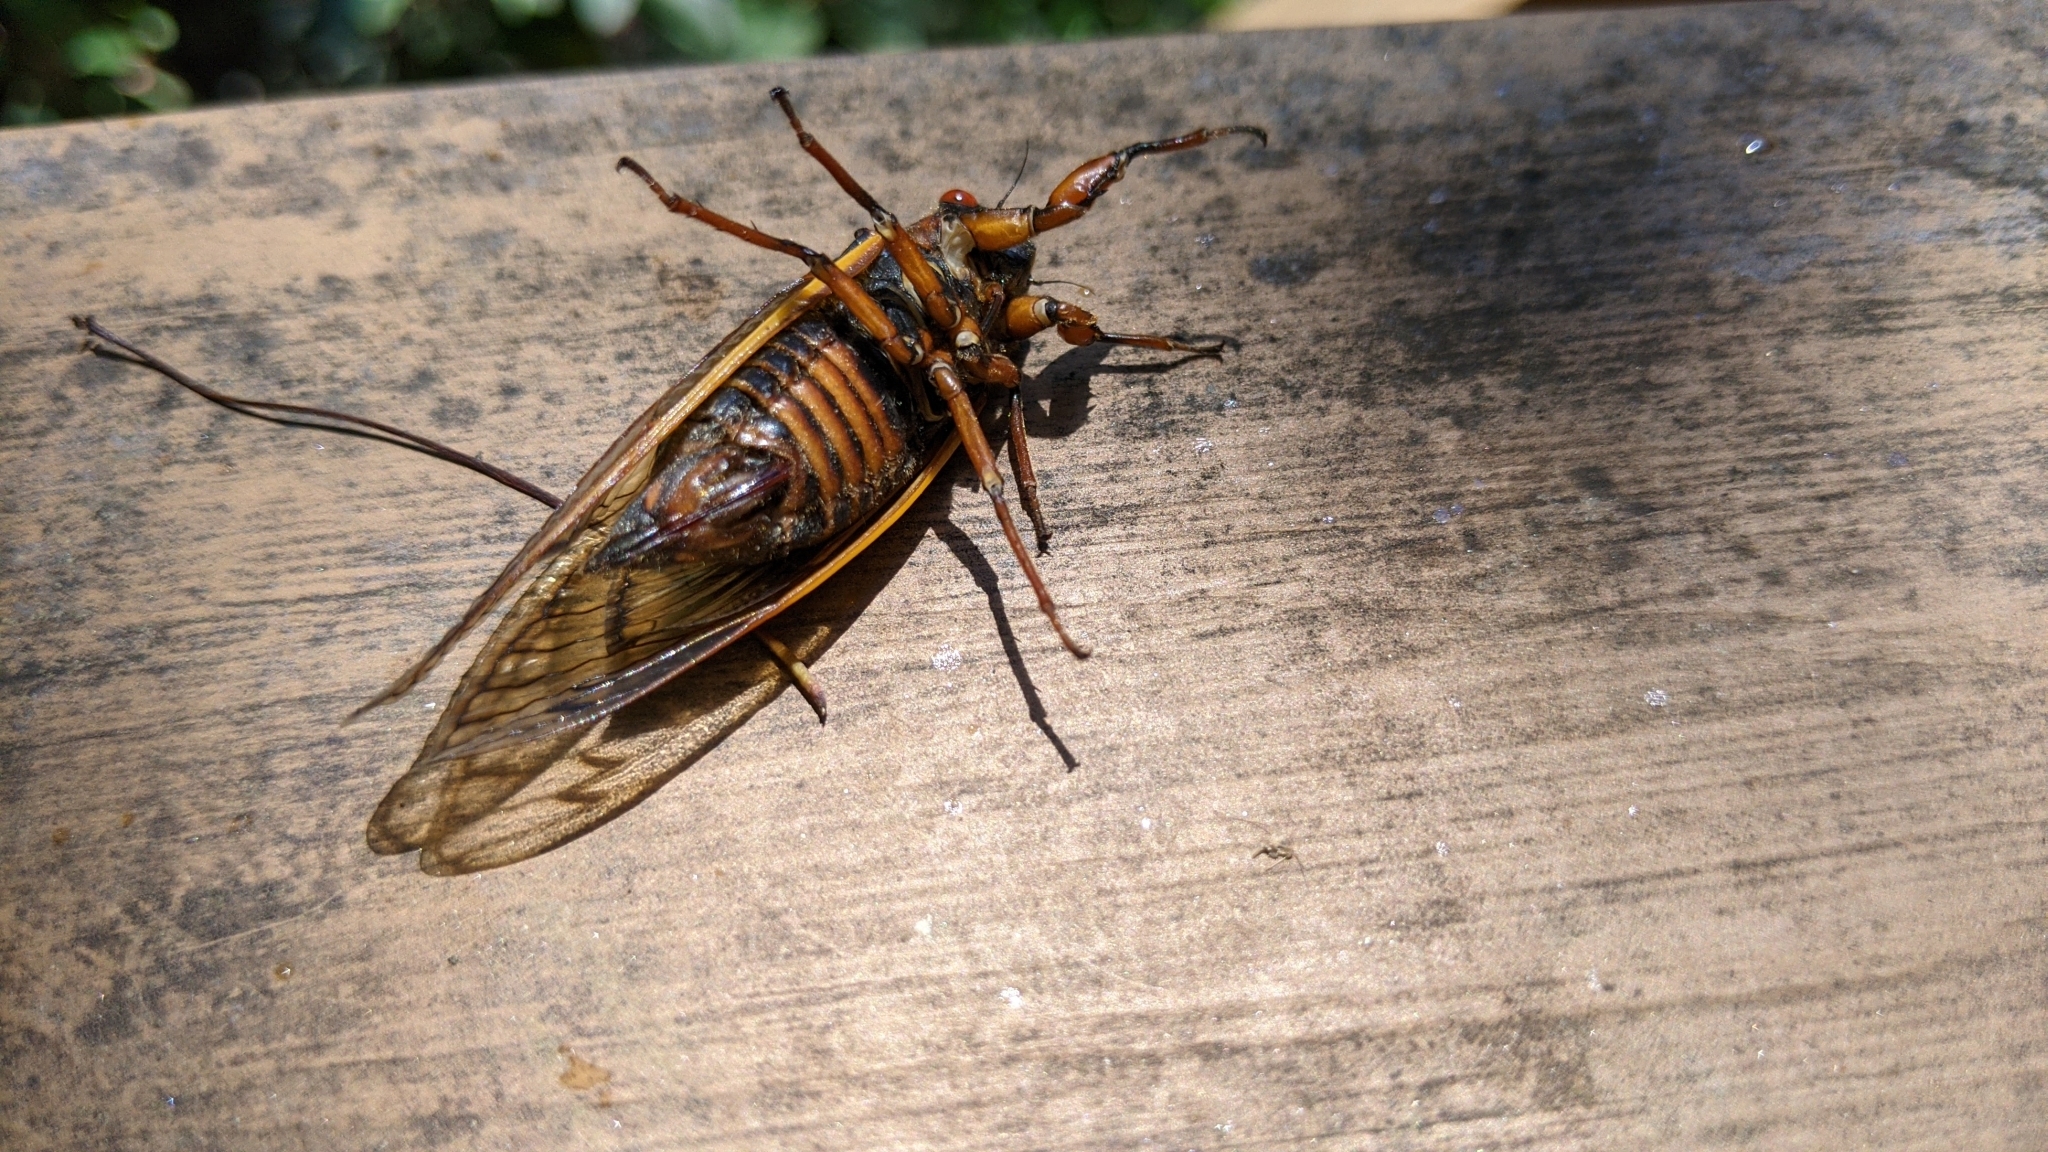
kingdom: Animalia
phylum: Arthropoda
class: Insecta
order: Hemiptera
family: Cicadidae
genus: Magicicada
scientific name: Magicicada septendecim
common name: Periodical cicada
